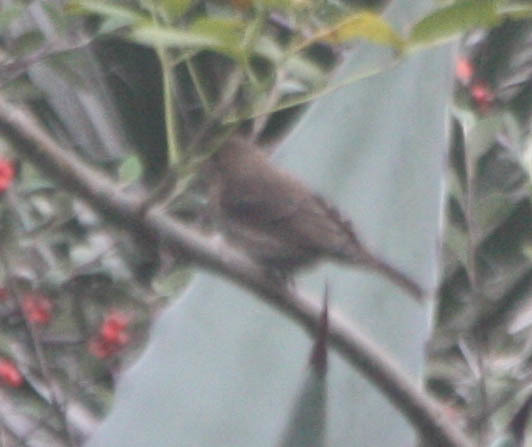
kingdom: Animalia
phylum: Chordata
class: Aves
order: Passeriformes
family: Fringillidae
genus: Haemorhous
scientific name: Haemorhous mexicanus
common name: House finch
